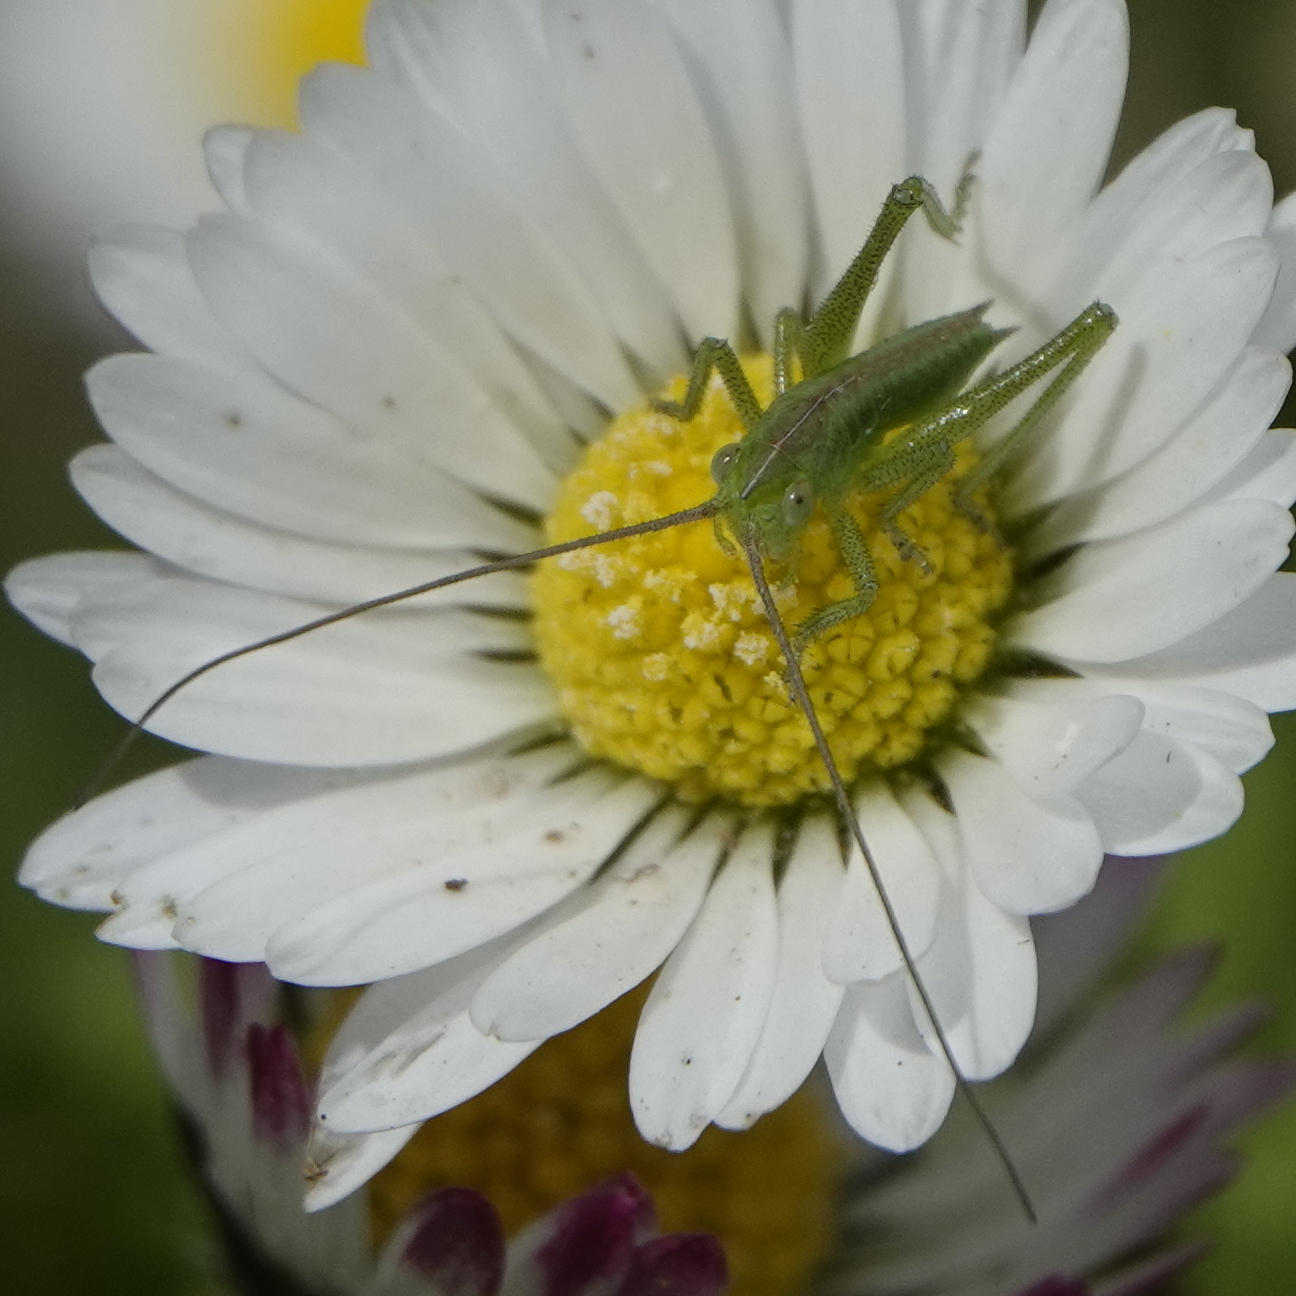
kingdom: Animalia
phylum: Arthropoda
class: Insecta
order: Orthoptera
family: Tettigoniidae
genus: Tettigonia
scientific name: Tettigonia viridissima
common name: Great green bush-cricket
